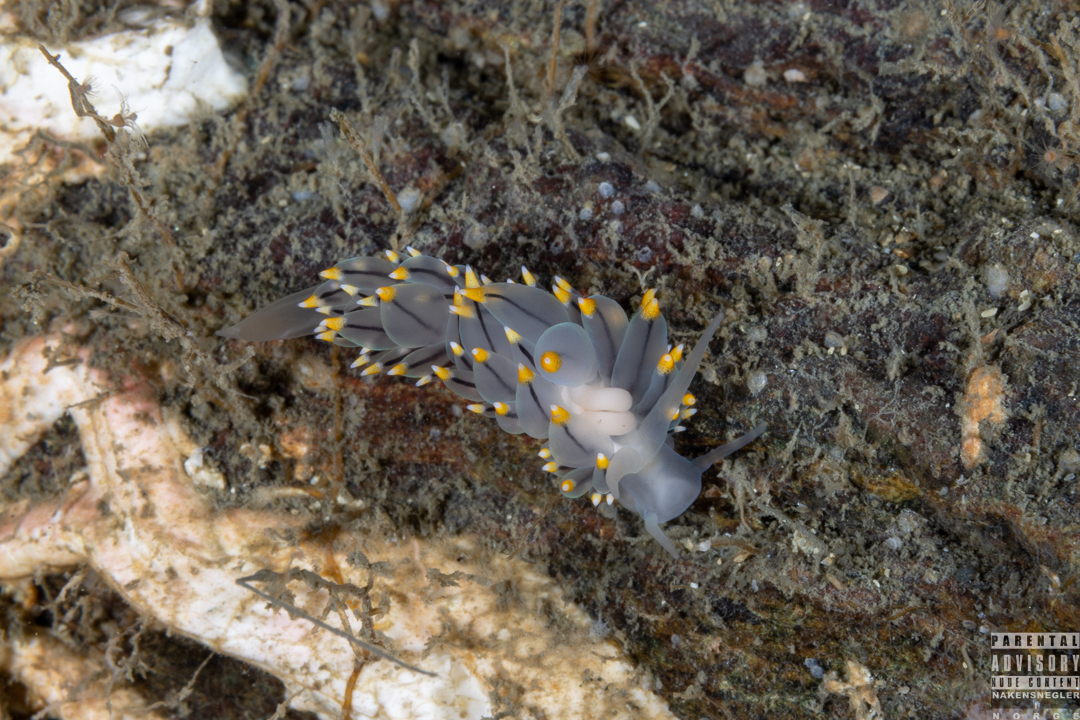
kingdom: Animalia
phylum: Mollusca
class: Gastropoda
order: Nudibranchia
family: Eubranchidae
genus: Eubranchus
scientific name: Eubranchus tricolor
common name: Painted balloon aeolis
